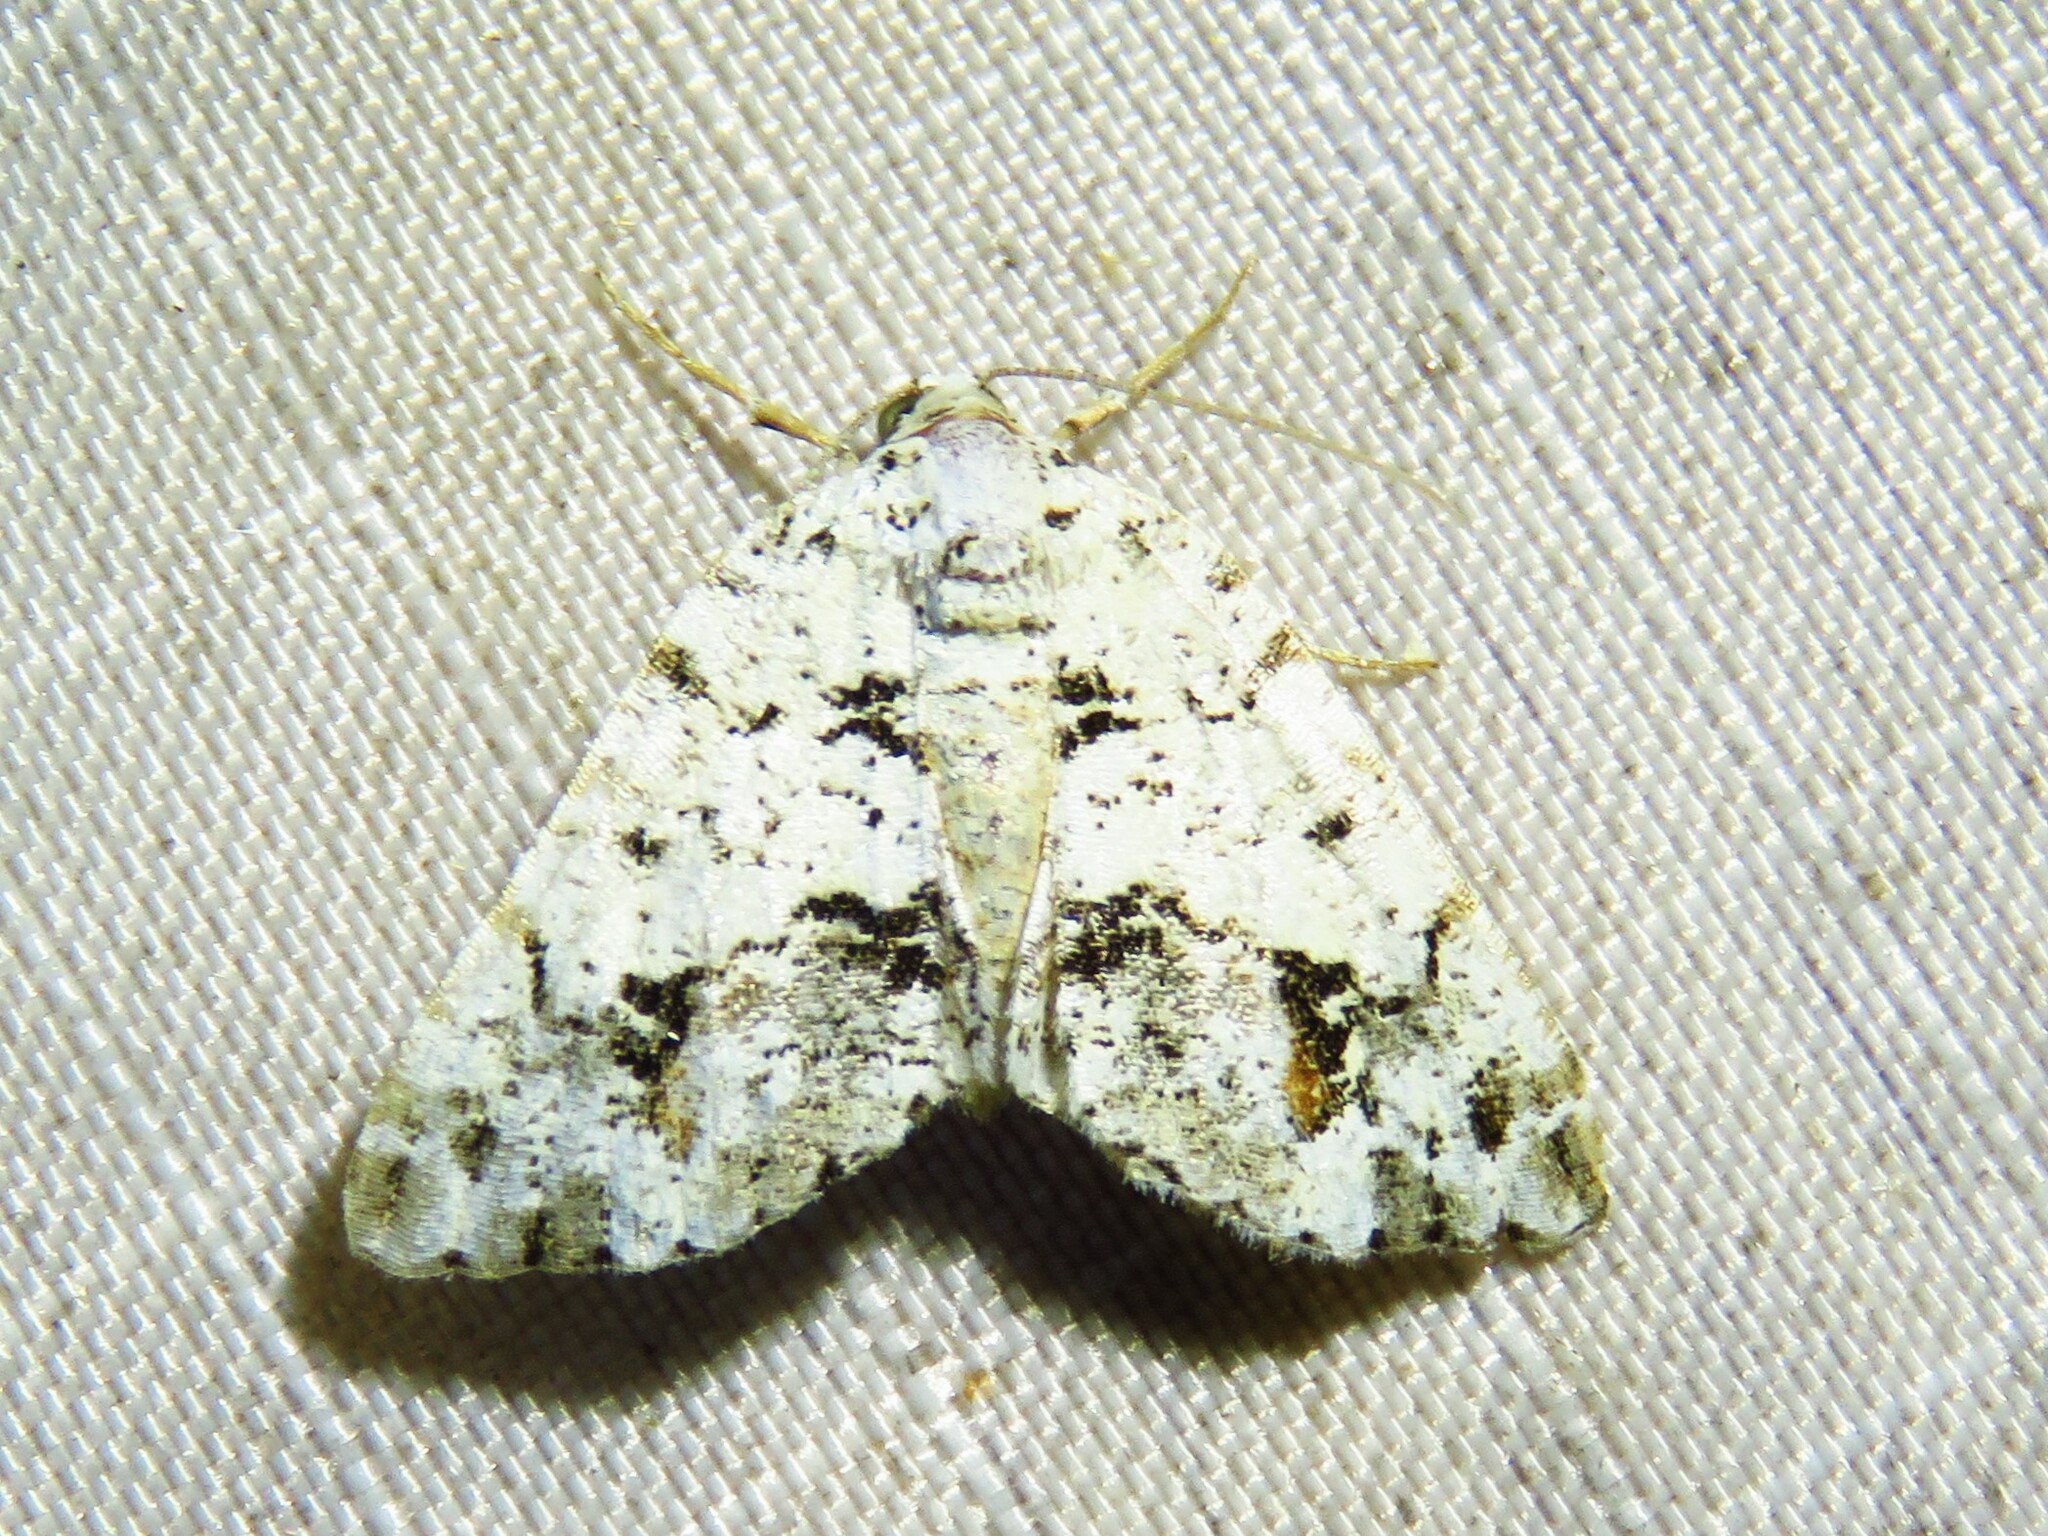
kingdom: Animalia
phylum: Arthropoda
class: Insecta
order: Lepidoptera
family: Geometridae
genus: Macaria
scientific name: Macaria graphidaria
